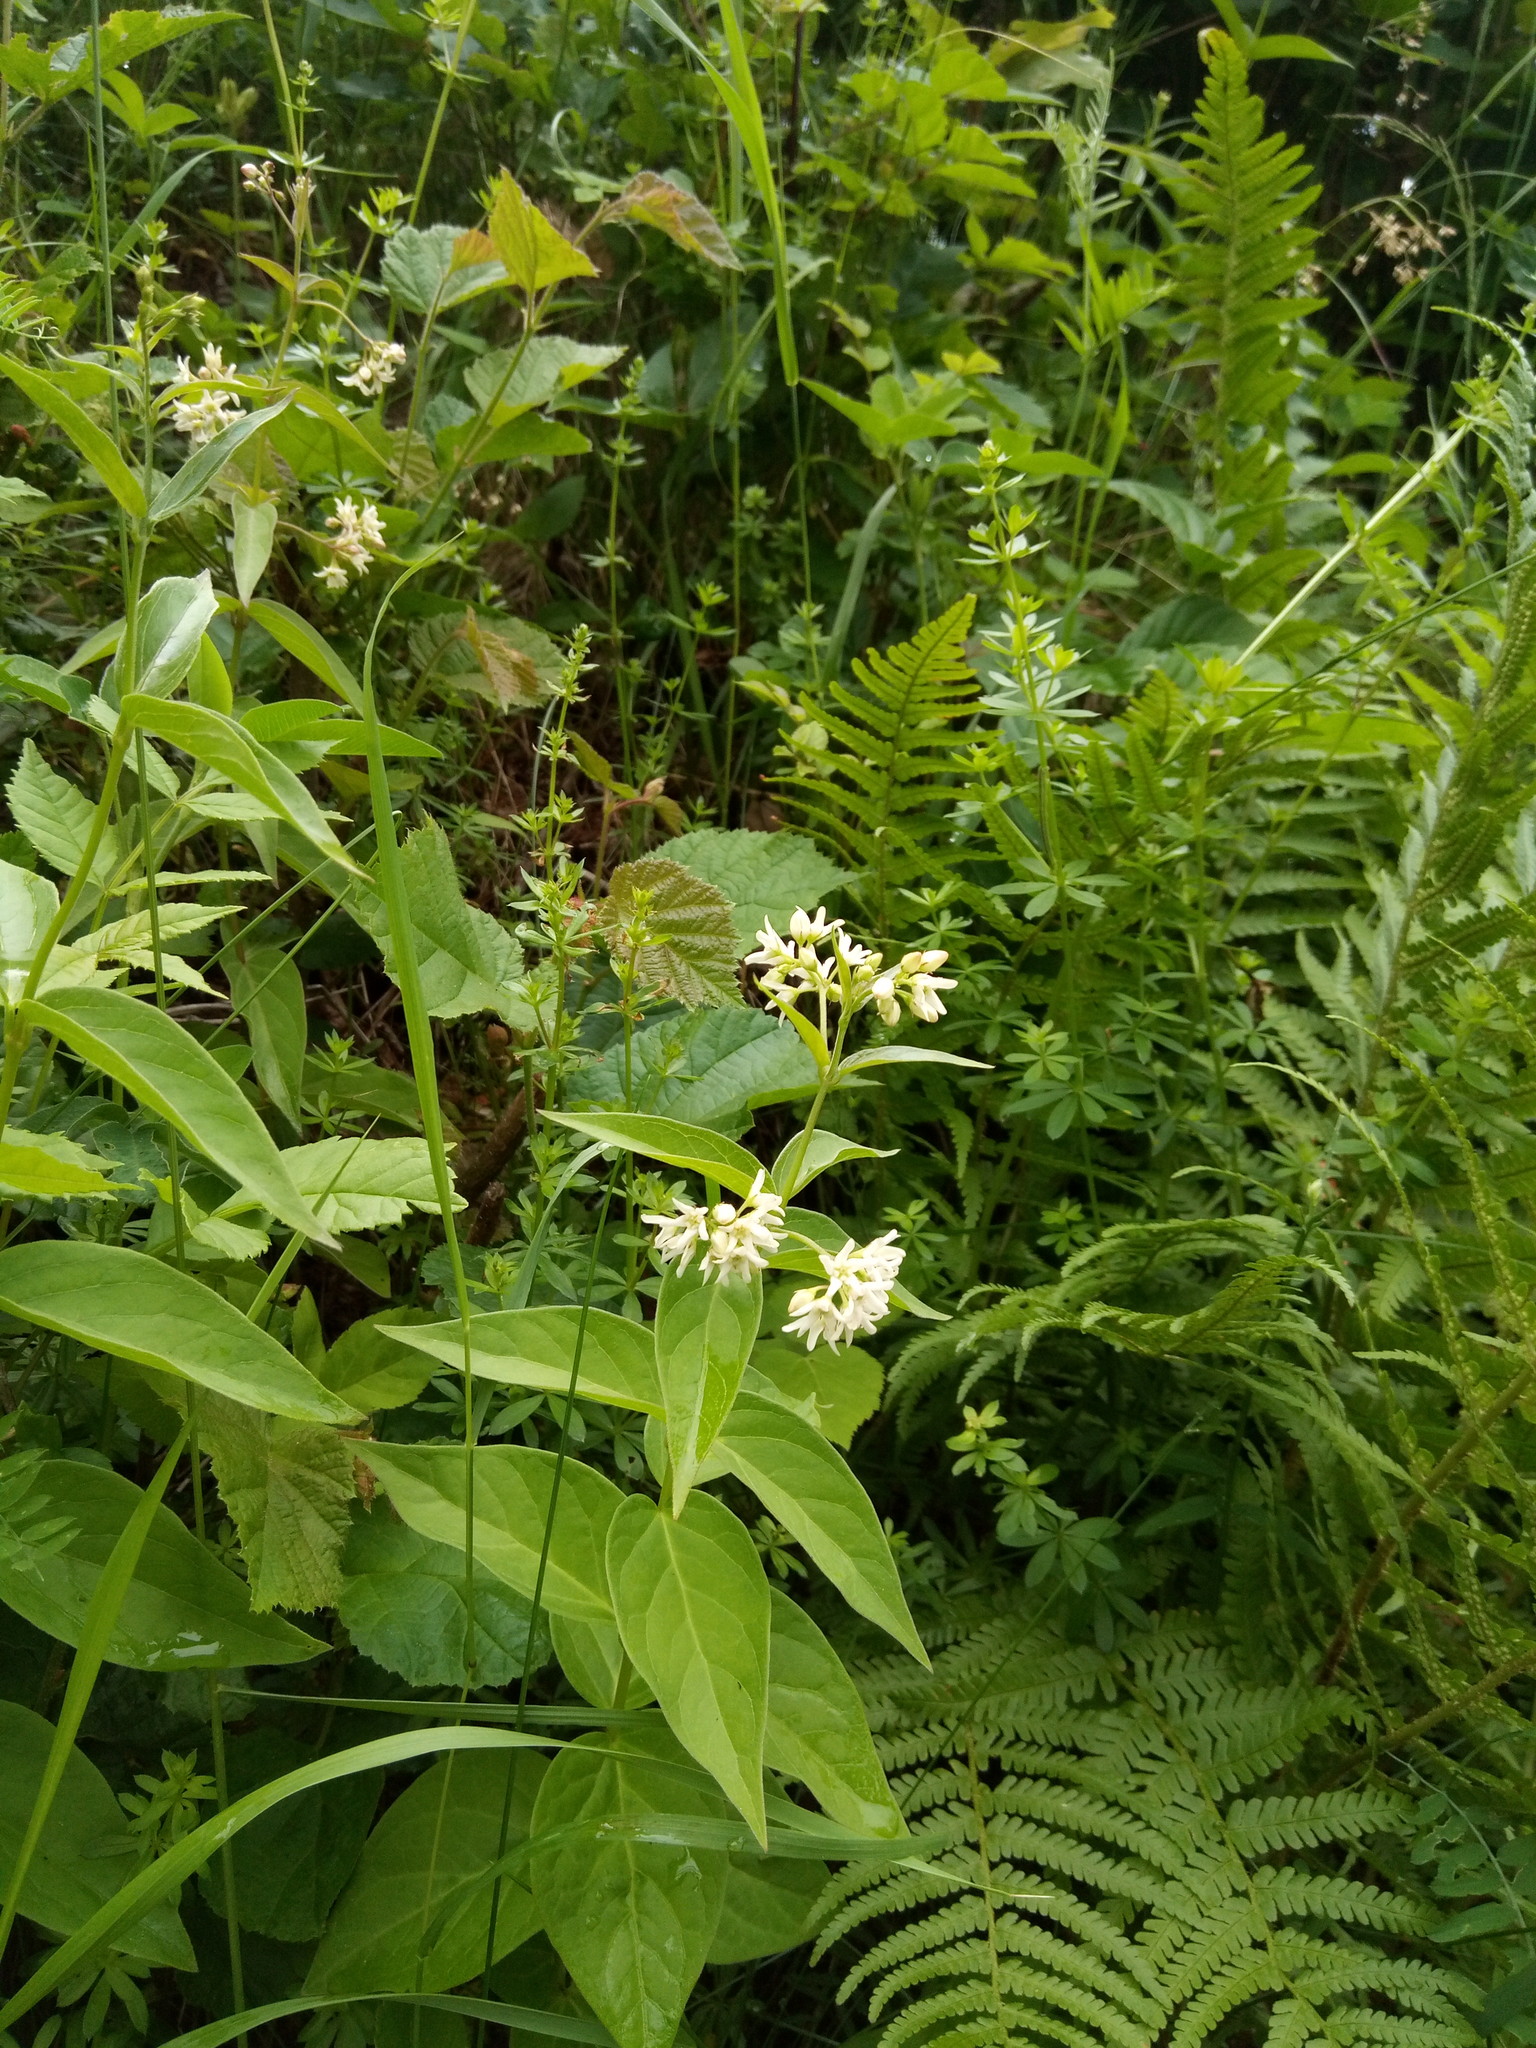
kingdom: Plantae
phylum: Tracheophyta
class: Magnoliopsida
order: Gentianales
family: Apocynaceae
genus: Vincetoxicum
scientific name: Vincetoxicum hirundinaria
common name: White swallowwort
